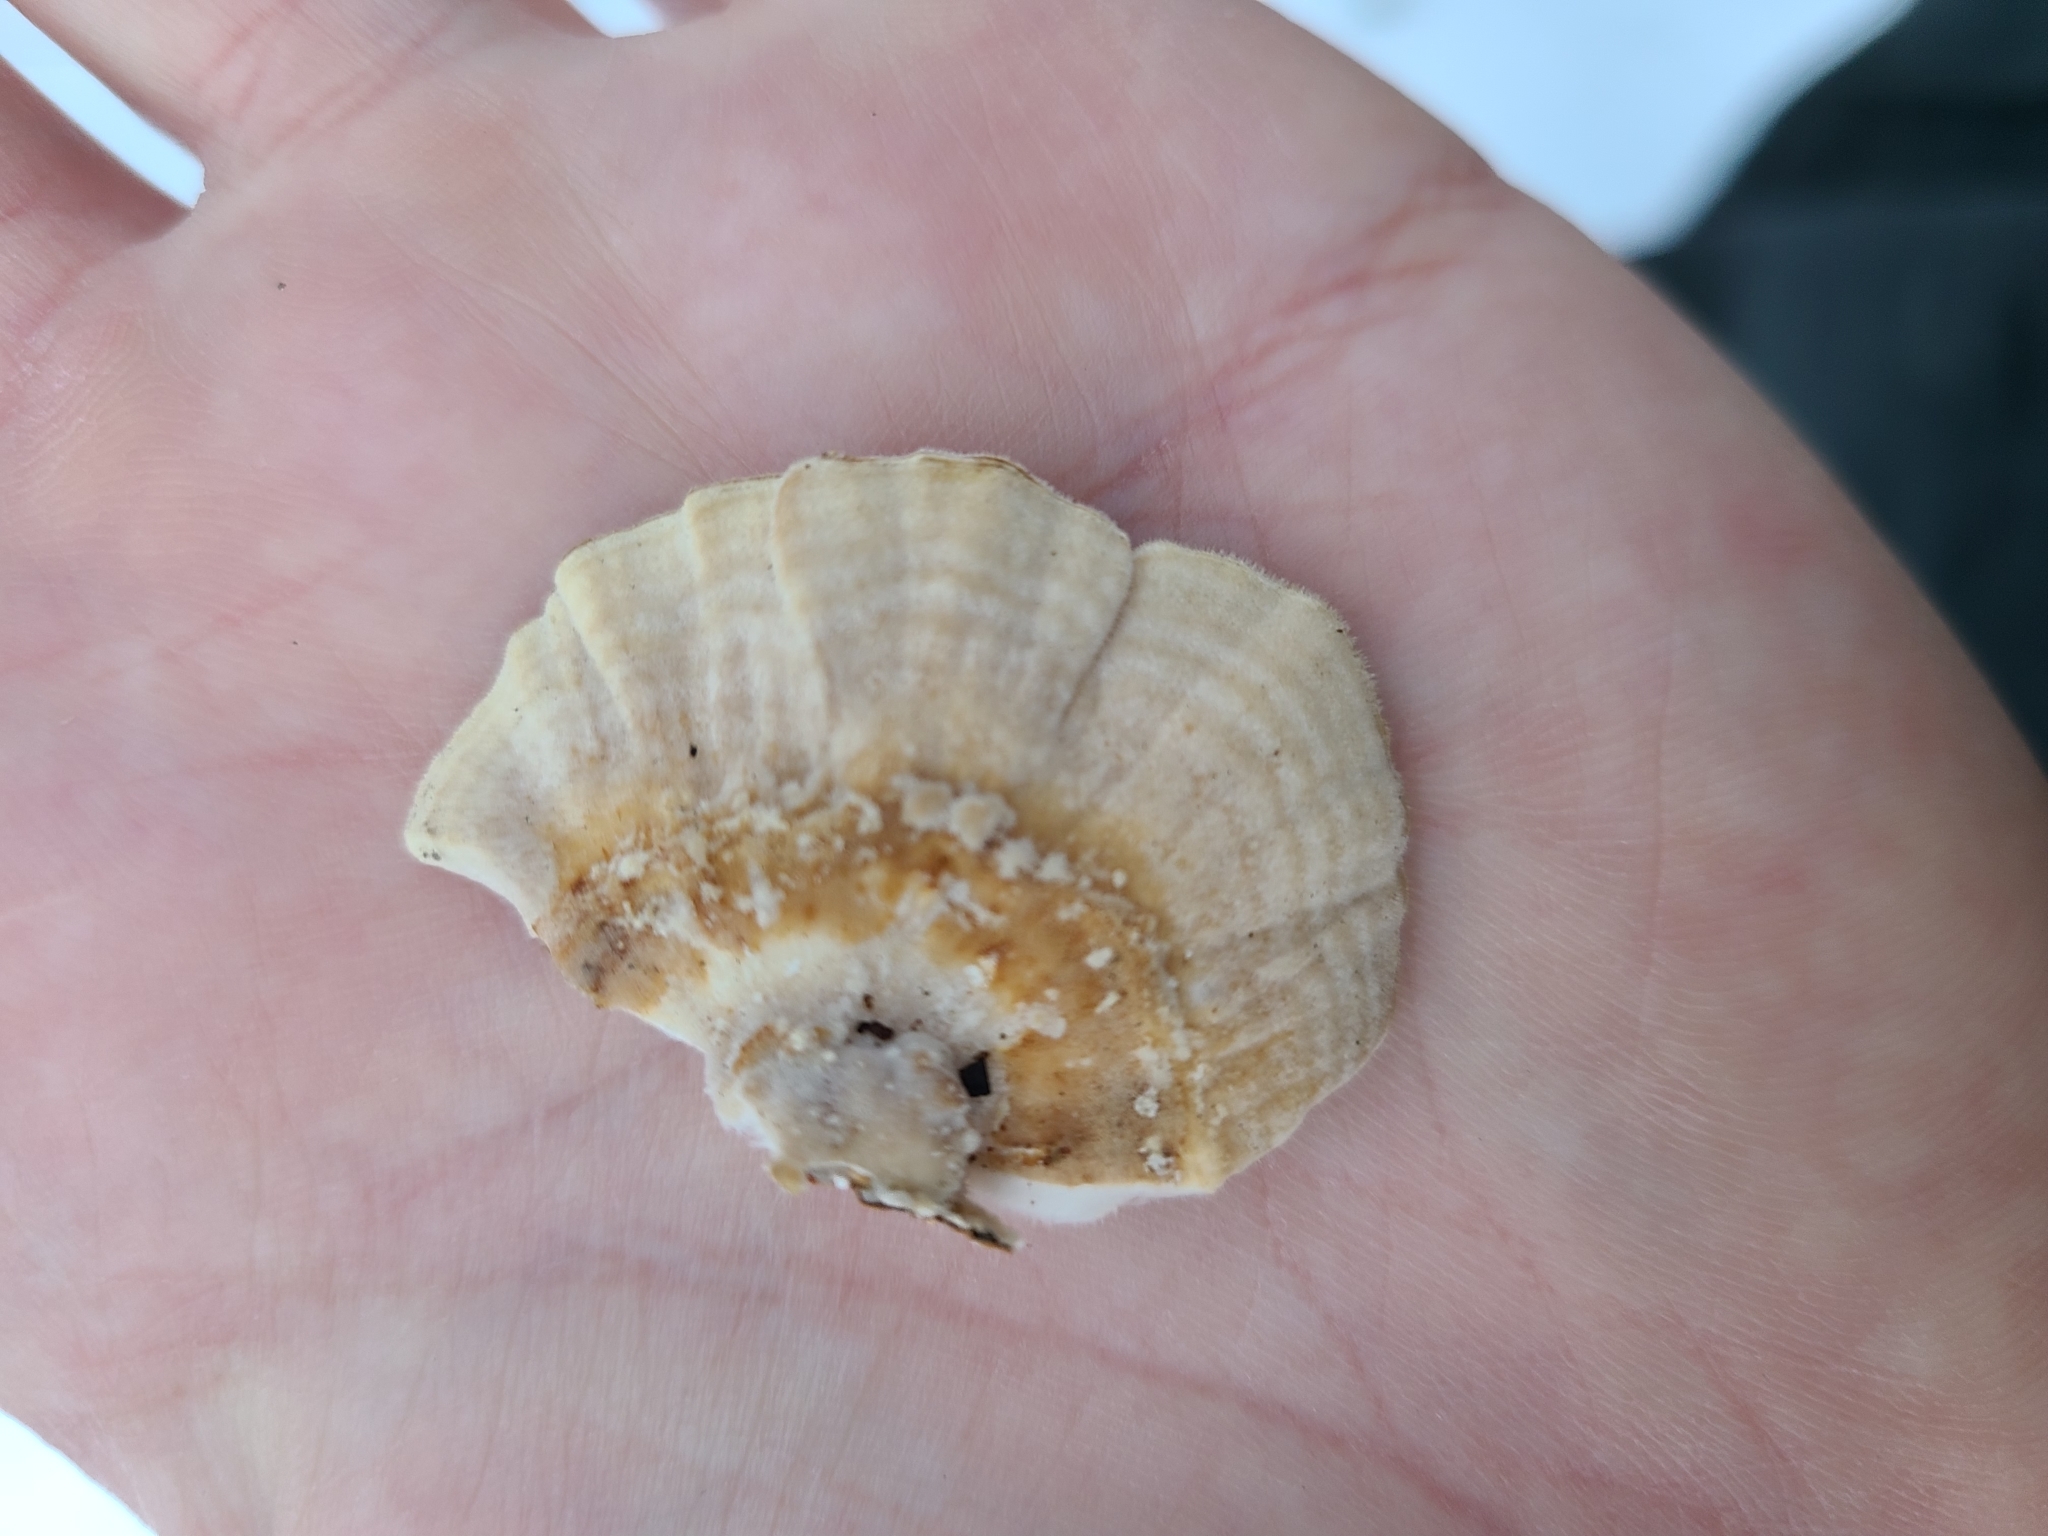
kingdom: Fungi
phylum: Basidiomycota
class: Agaricomycetes
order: Polyporales
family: Polyporaceae
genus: Trametes
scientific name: Trametes ochracea
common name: Ochre bracket
